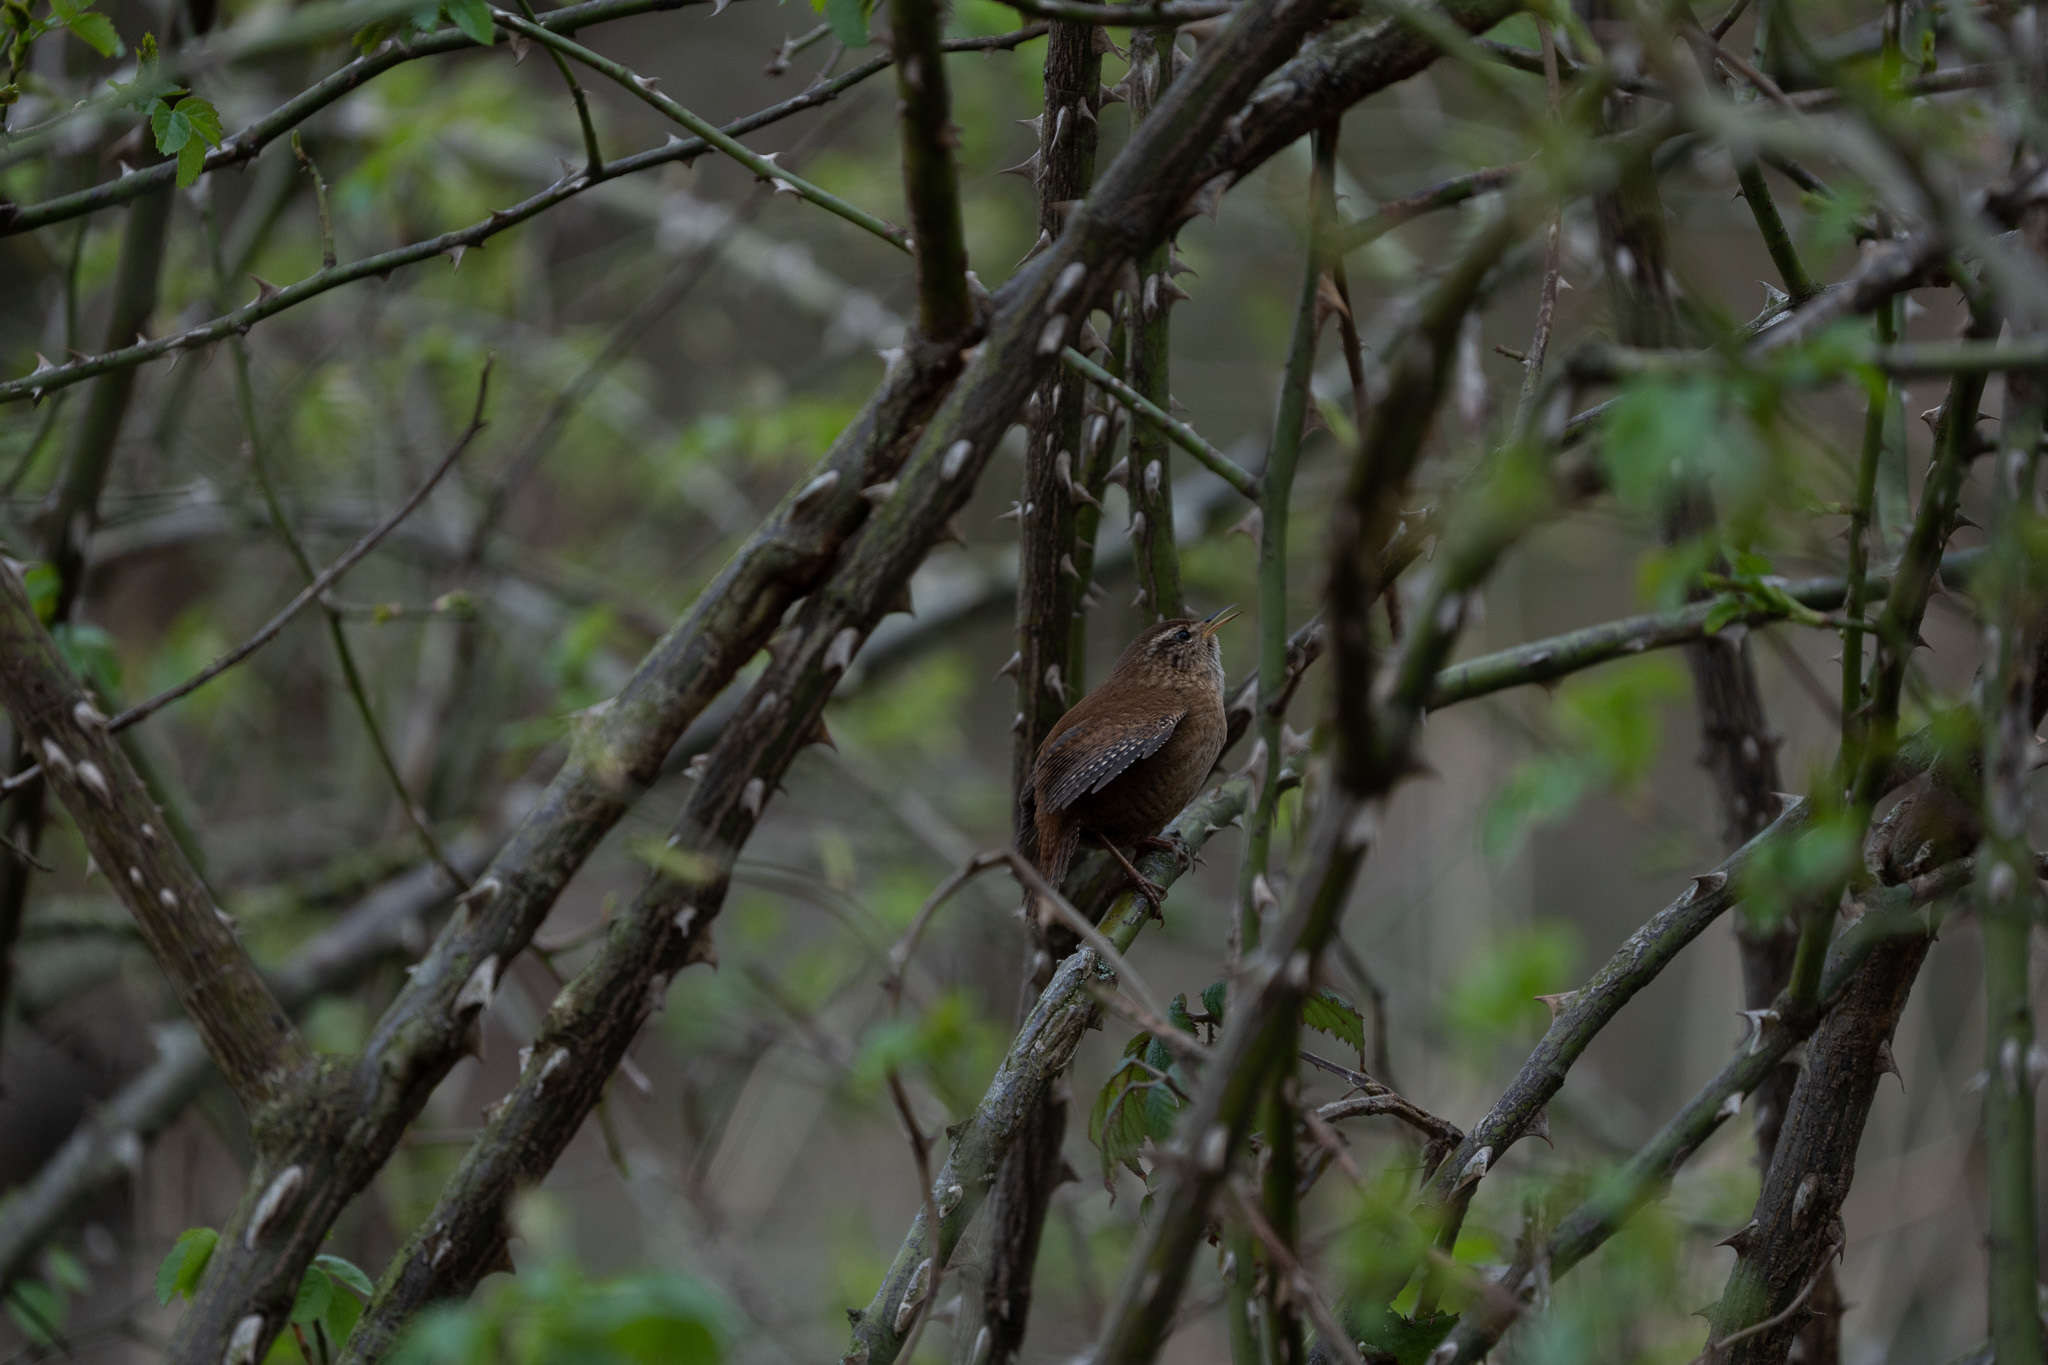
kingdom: Animalia
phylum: Chordata
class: Aves
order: Passeriformes
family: Troglodytidae
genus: Troglodytes
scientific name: Troglodytes troglodytes
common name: Eurasian wren
